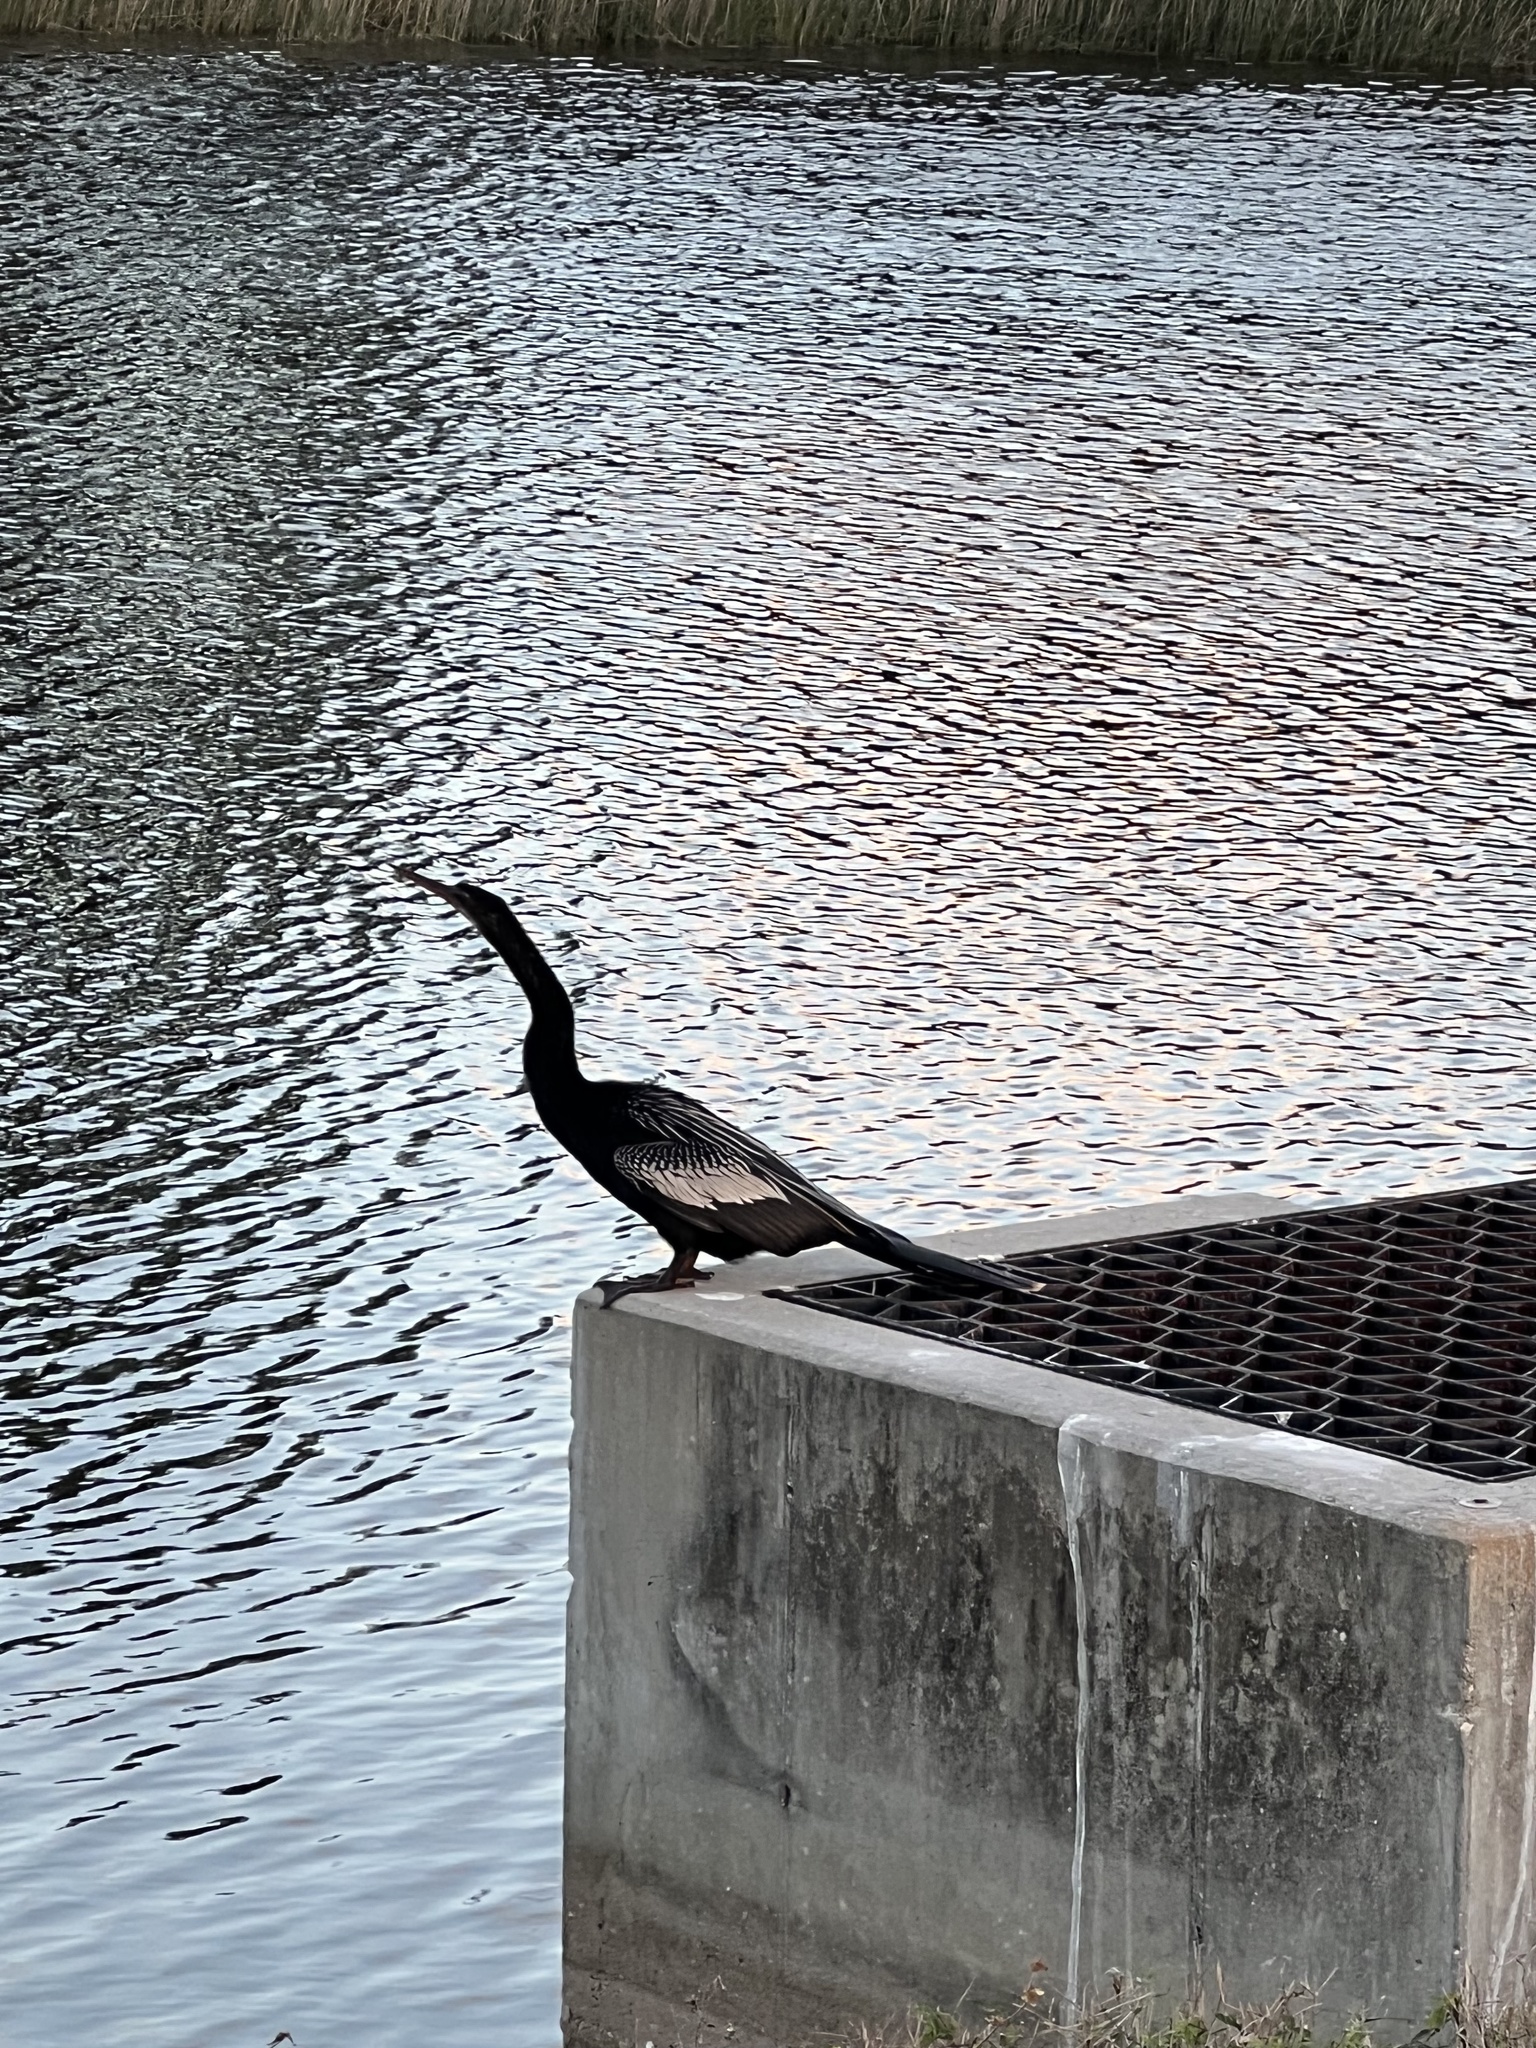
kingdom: Animalia
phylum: Chordata
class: Aves
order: Suliformes
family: Anhingidae
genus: Anhinga
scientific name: Anhinga anhinga
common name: Anhinga
